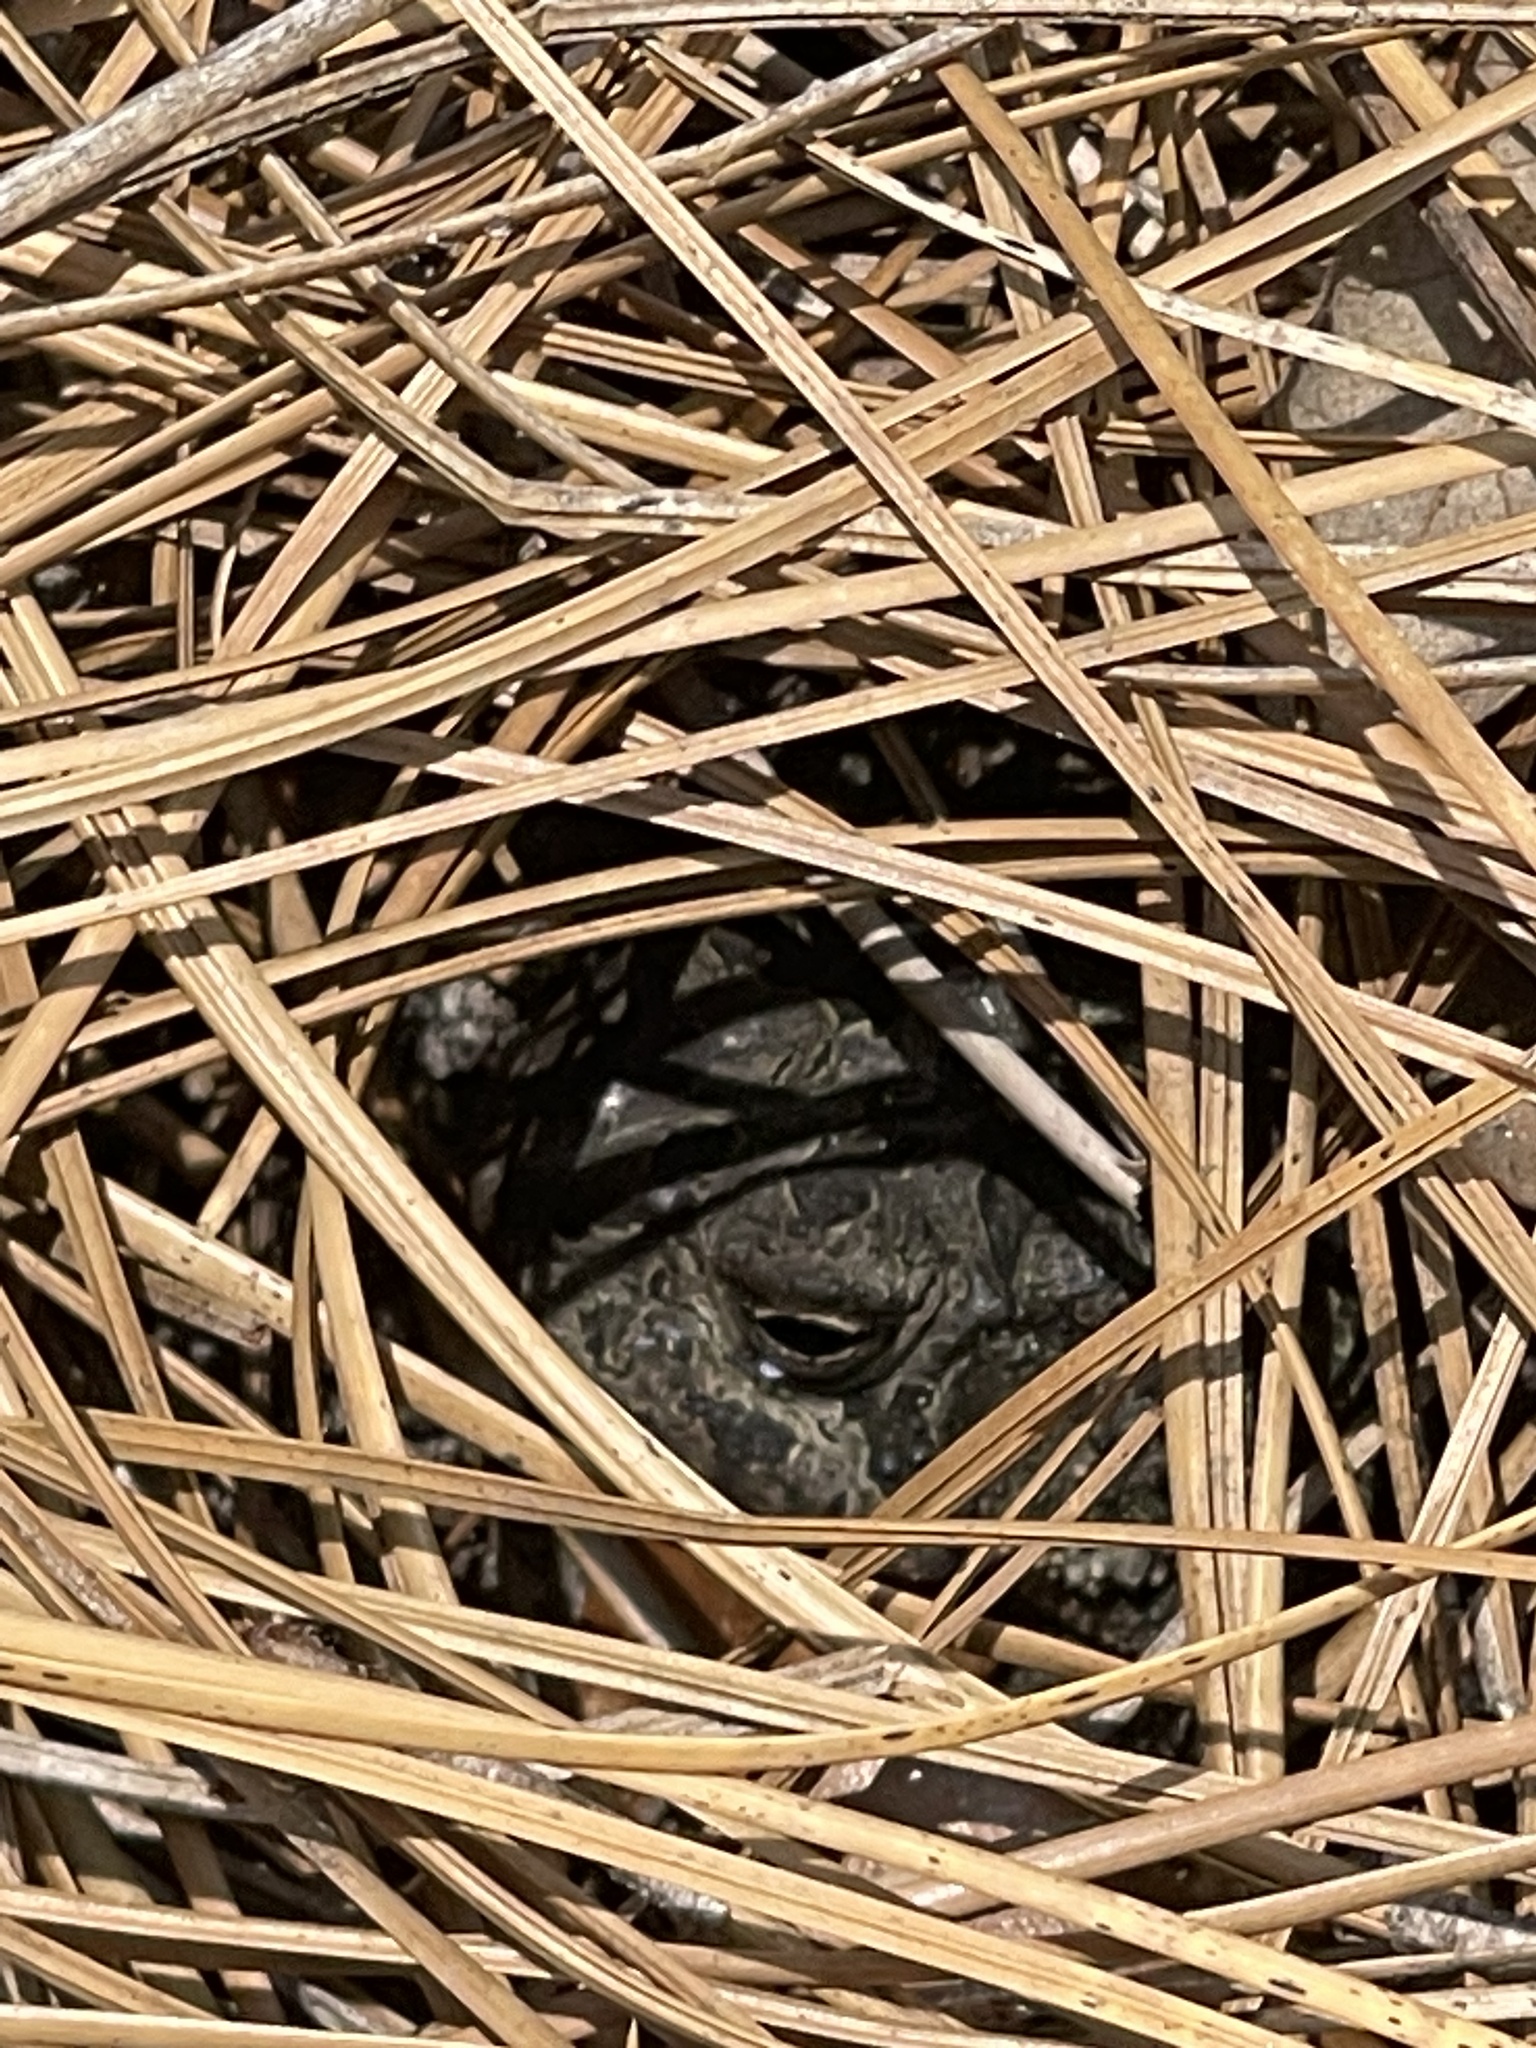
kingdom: Animalia
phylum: Chordata
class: Amphibia
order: Anura
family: Bufonidae
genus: Anaxyrus
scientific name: Anaxyrus terrestris
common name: Southern toad
